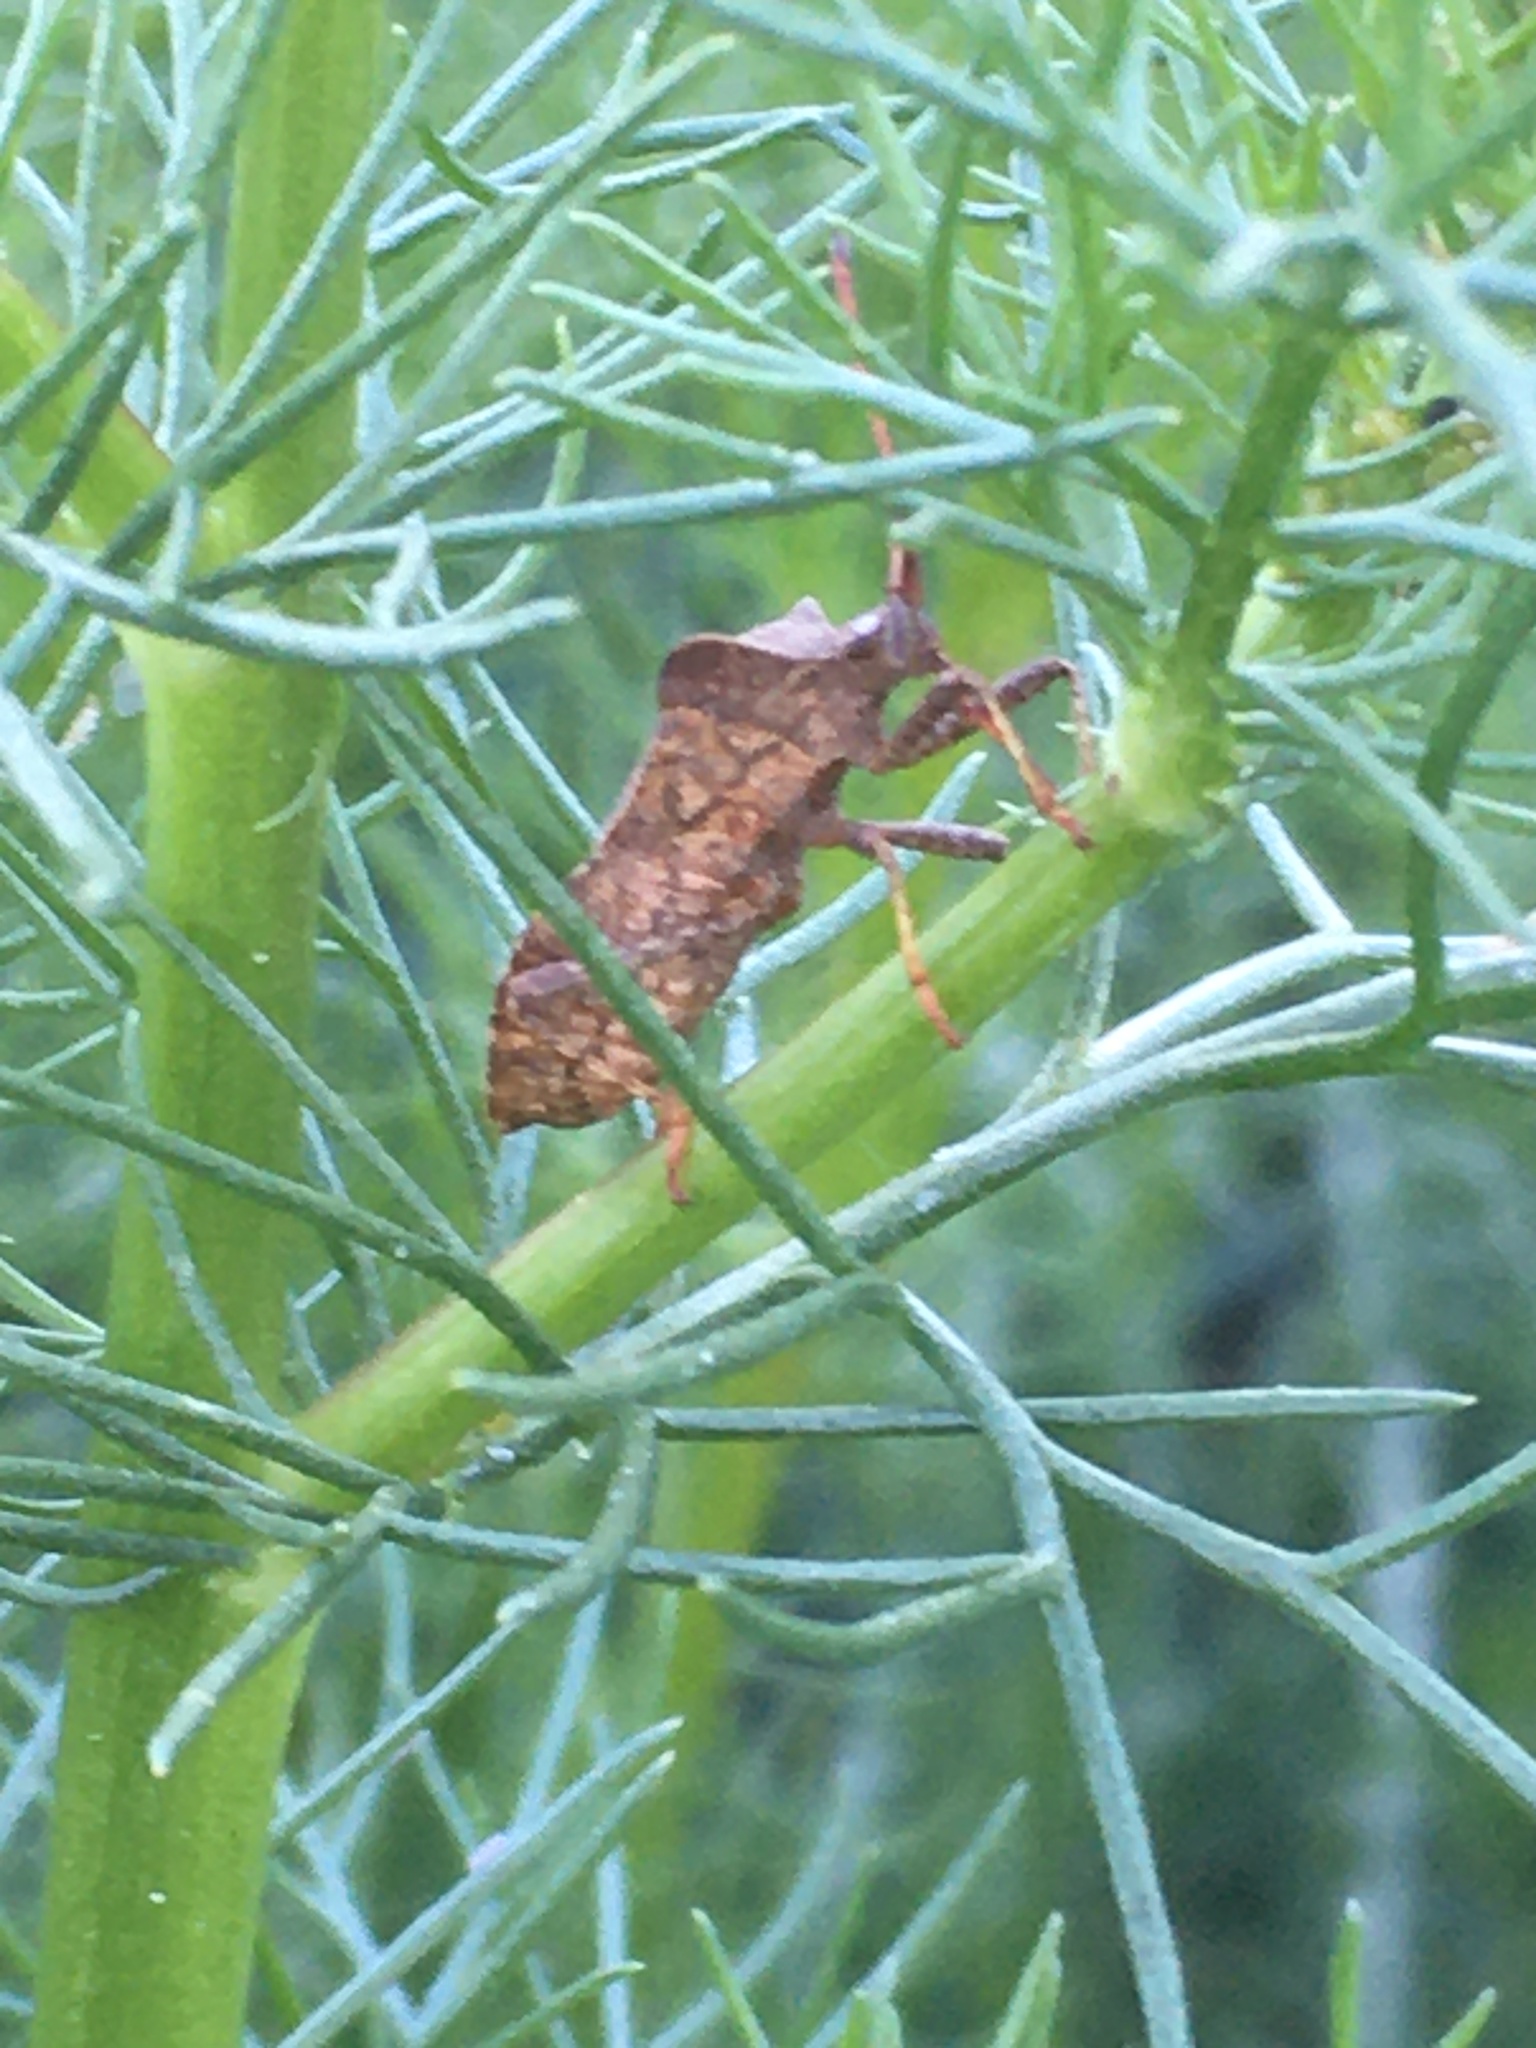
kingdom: Animalia
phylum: Arthropoda
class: Insecta
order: Hemiptera
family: Coreidae
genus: Coreus
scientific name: Coreus marginatus
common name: Dock bug
